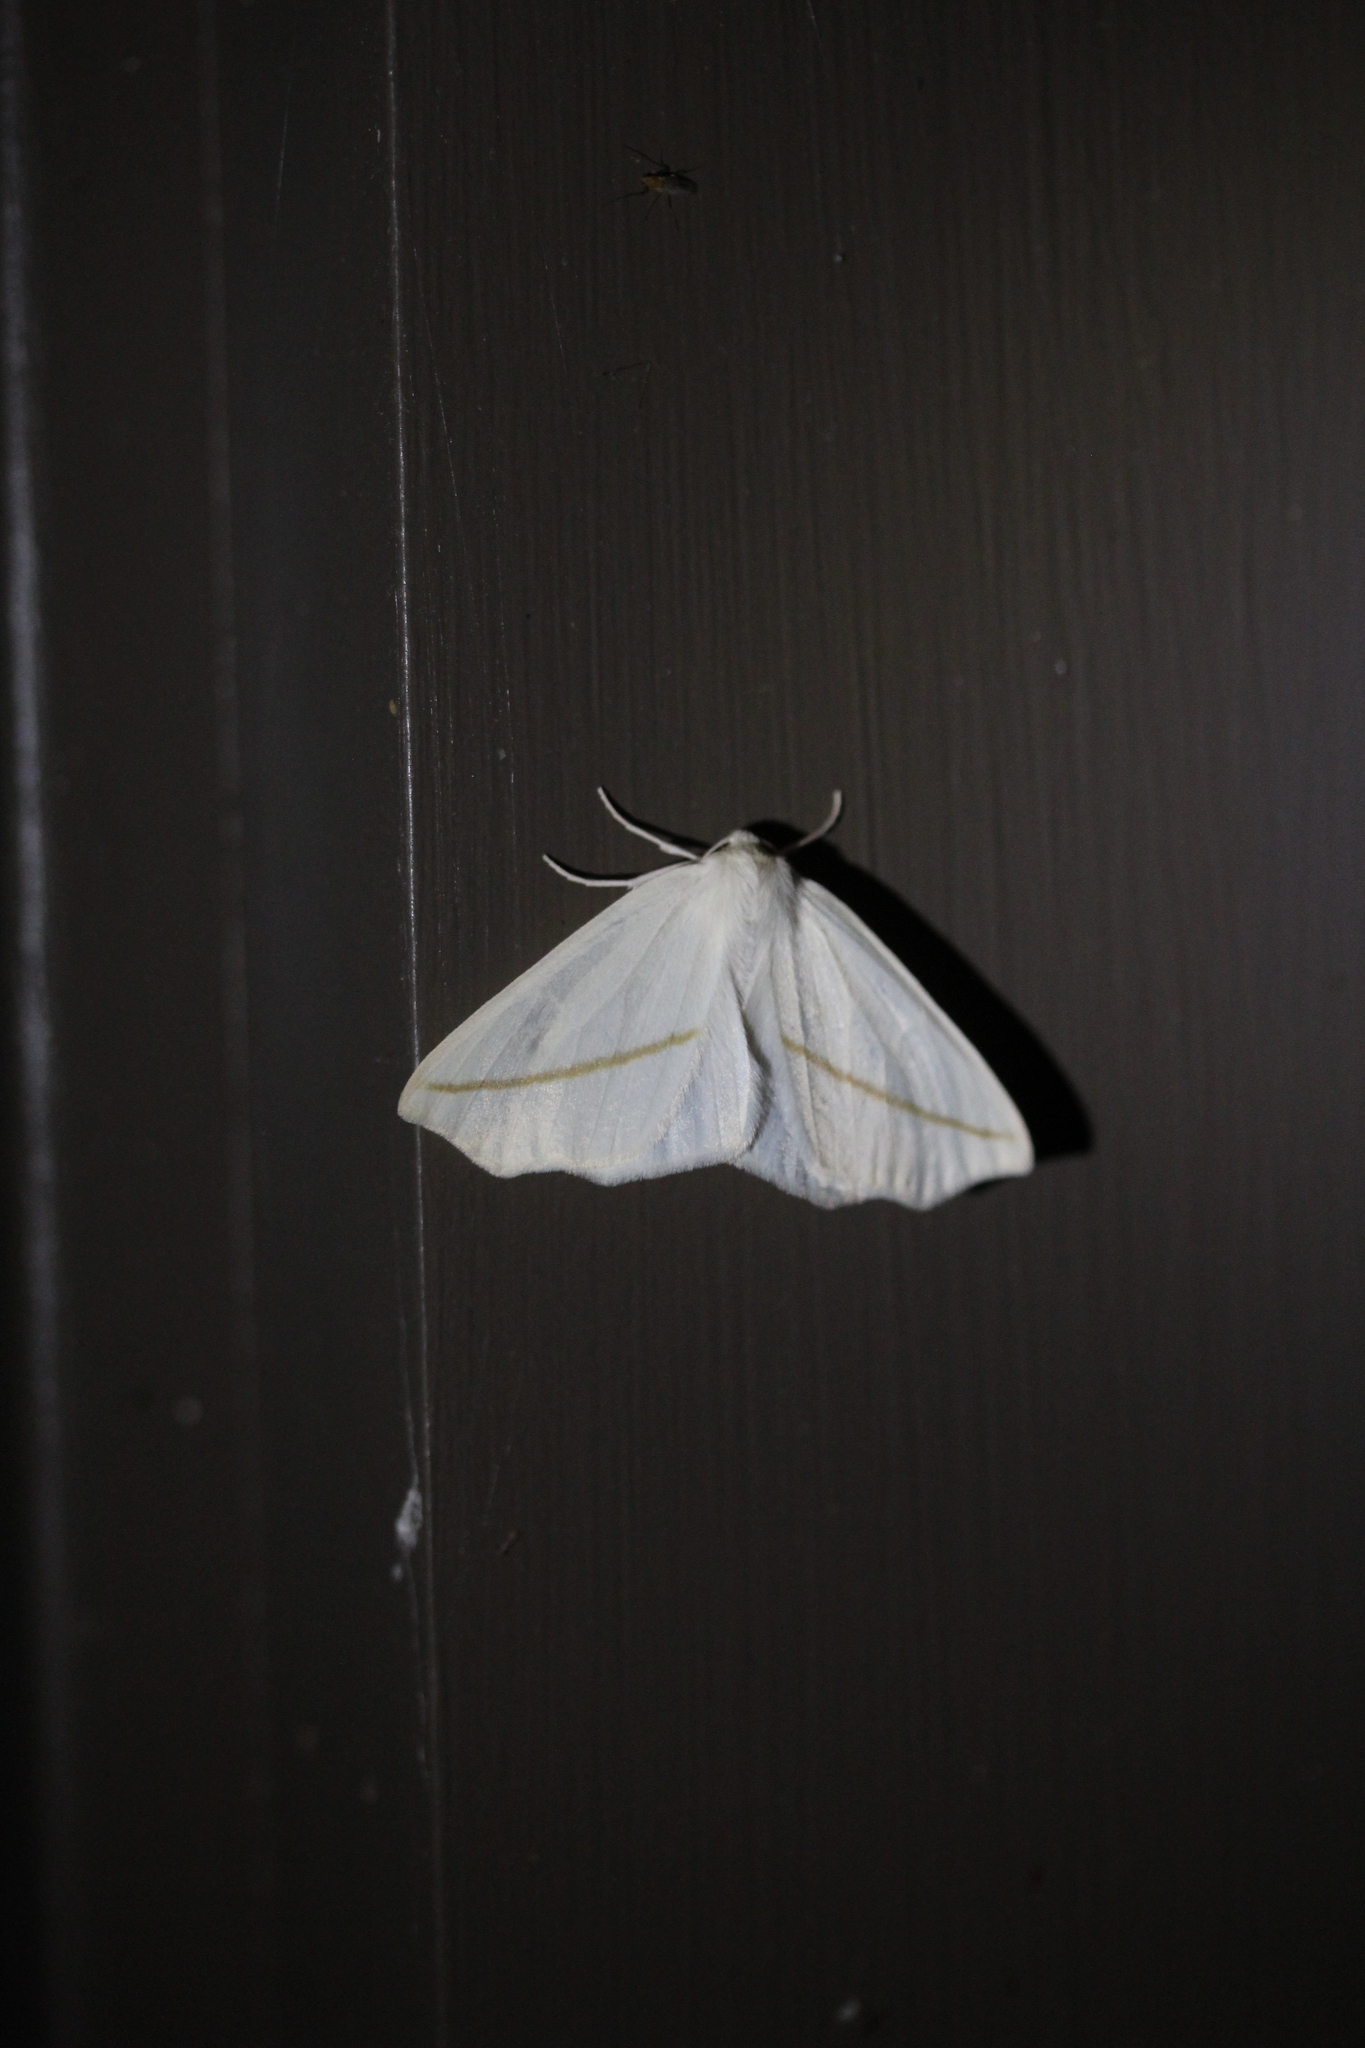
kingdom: Animalia
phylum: Arthropoda
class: Insecta
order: Lepidoptera
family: Geometridae
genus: Tetracis
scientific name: Tetracis cachexiata
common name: White slant-line
